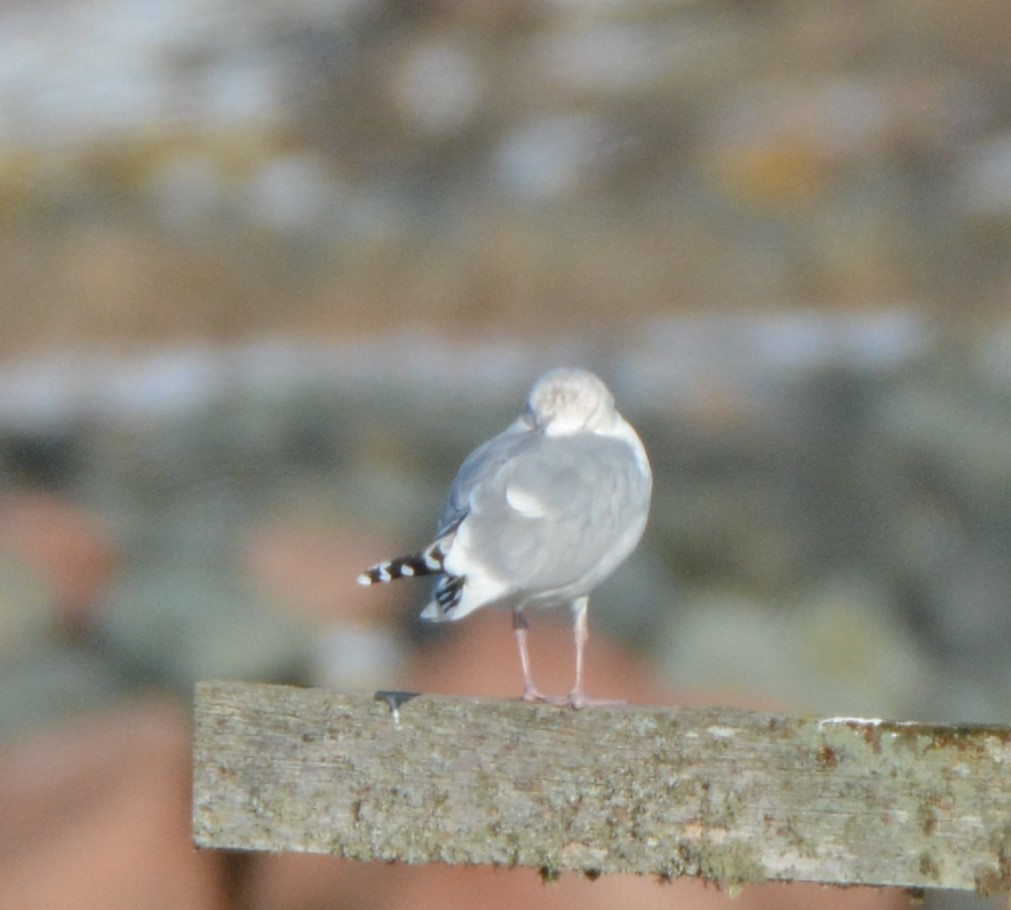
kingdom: Animalia
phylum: Chordata
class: Aves
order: Charadriiformes
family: Laridae
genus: Larus
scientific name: Larus argentatus
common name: Herring gull
